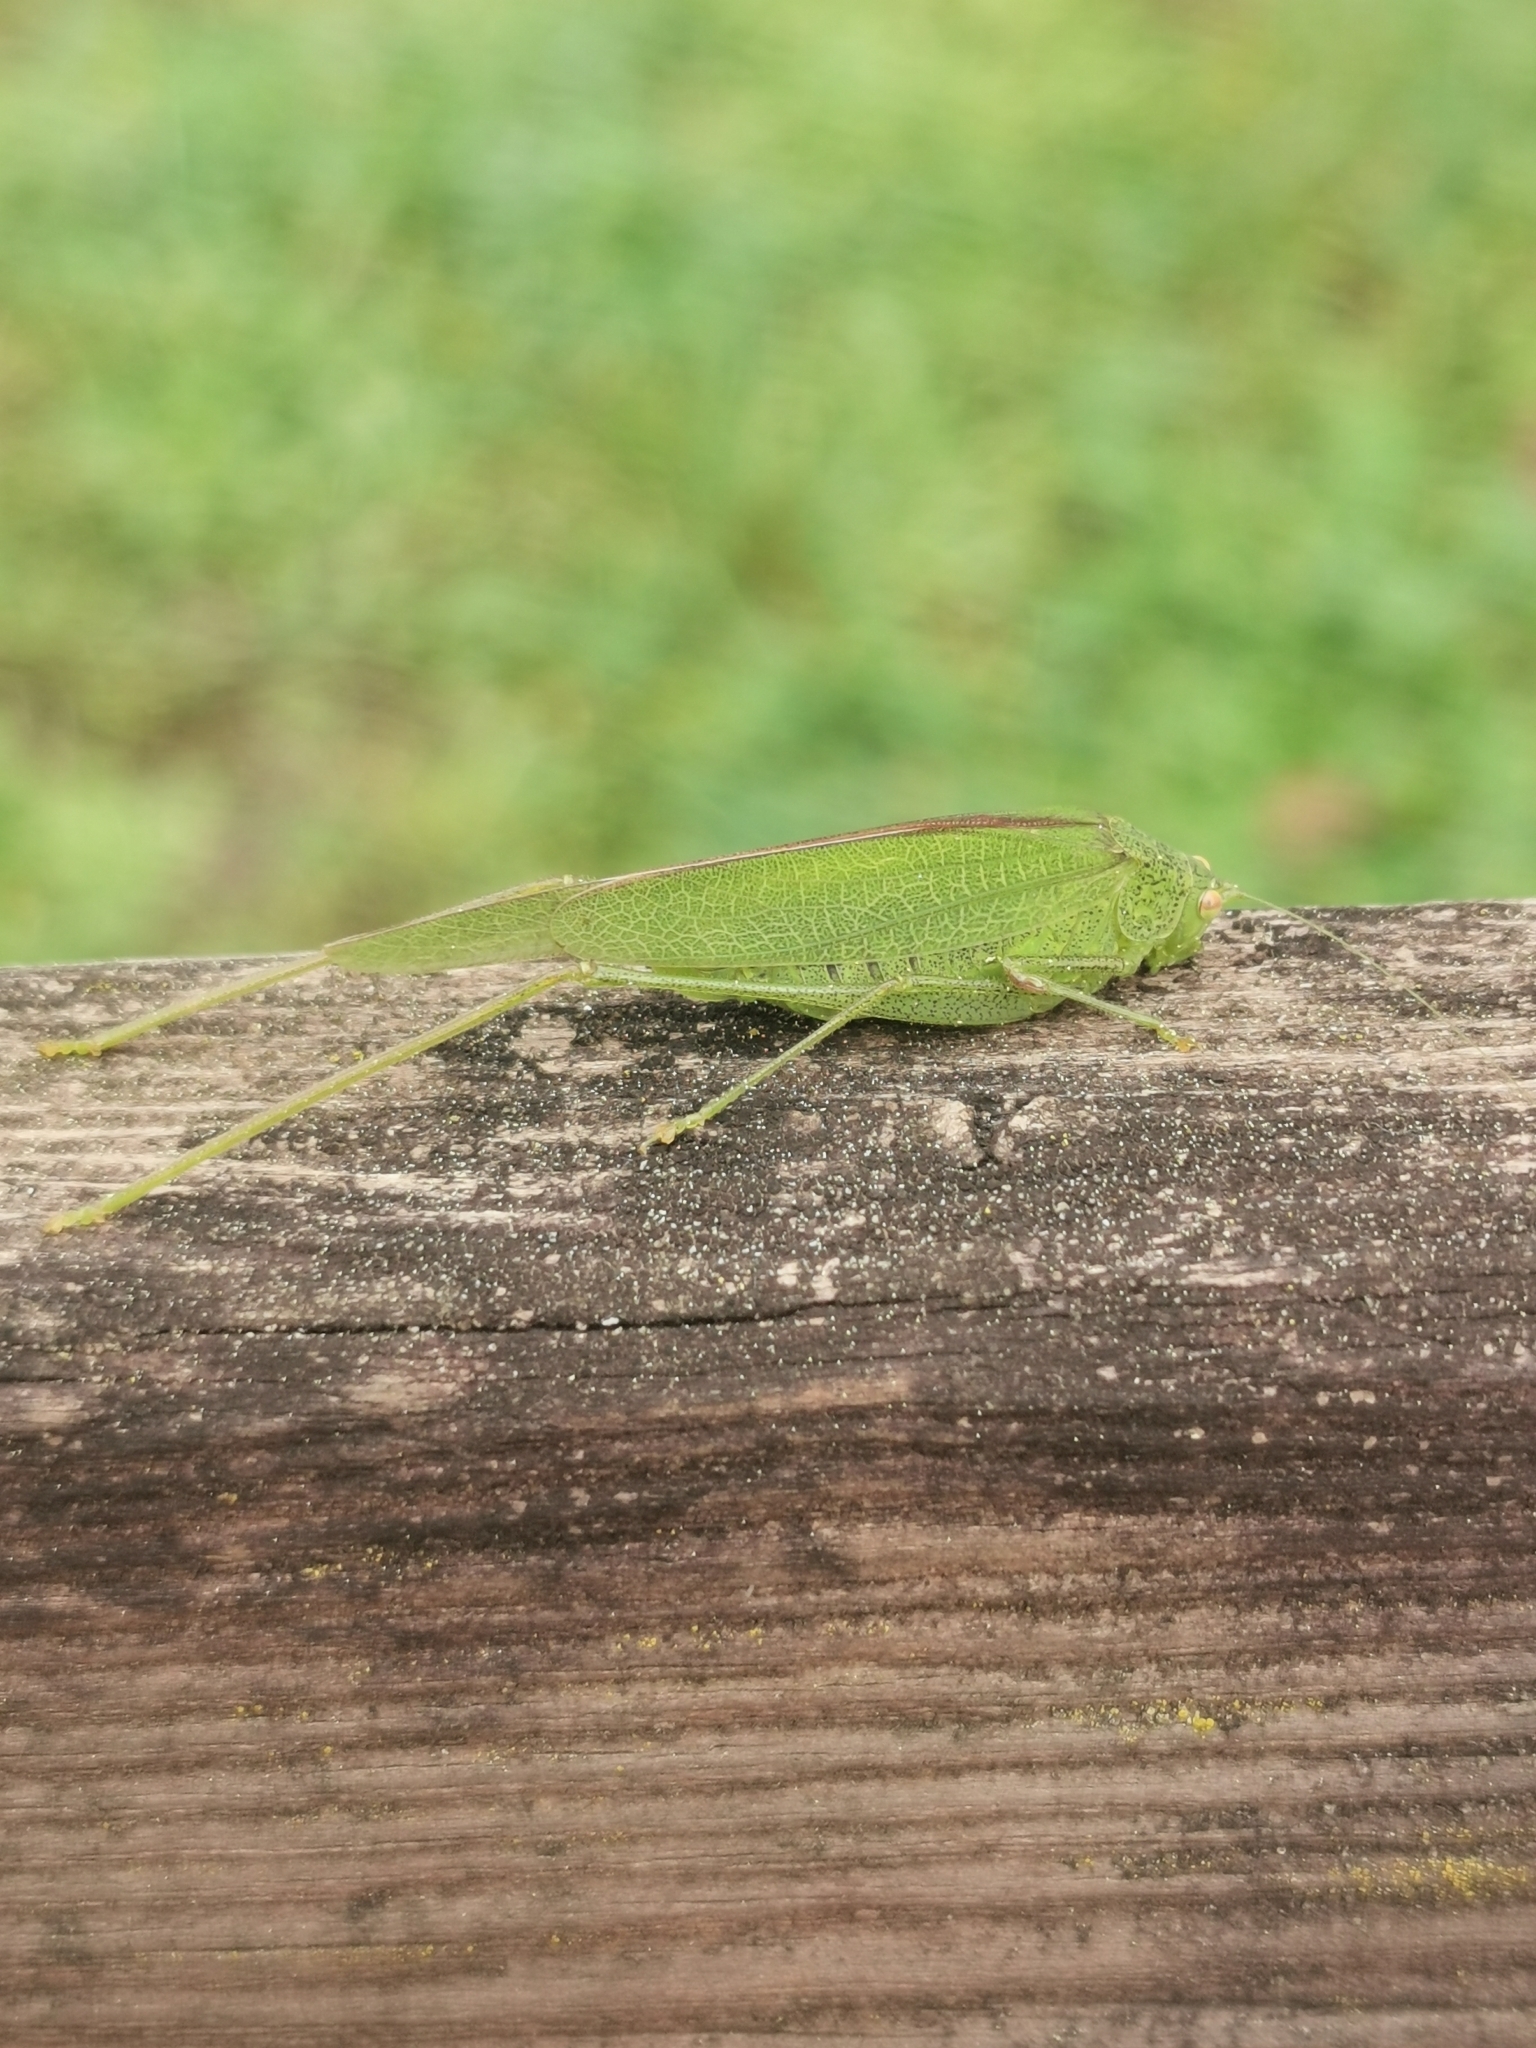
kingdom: Animalia
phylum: Arthropoda
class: Insecta
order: Orthoptera
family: Tettigoniidae
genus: Phaneroptera
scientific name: Phaneroptera nana
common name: Southern sickle bush-cricket
